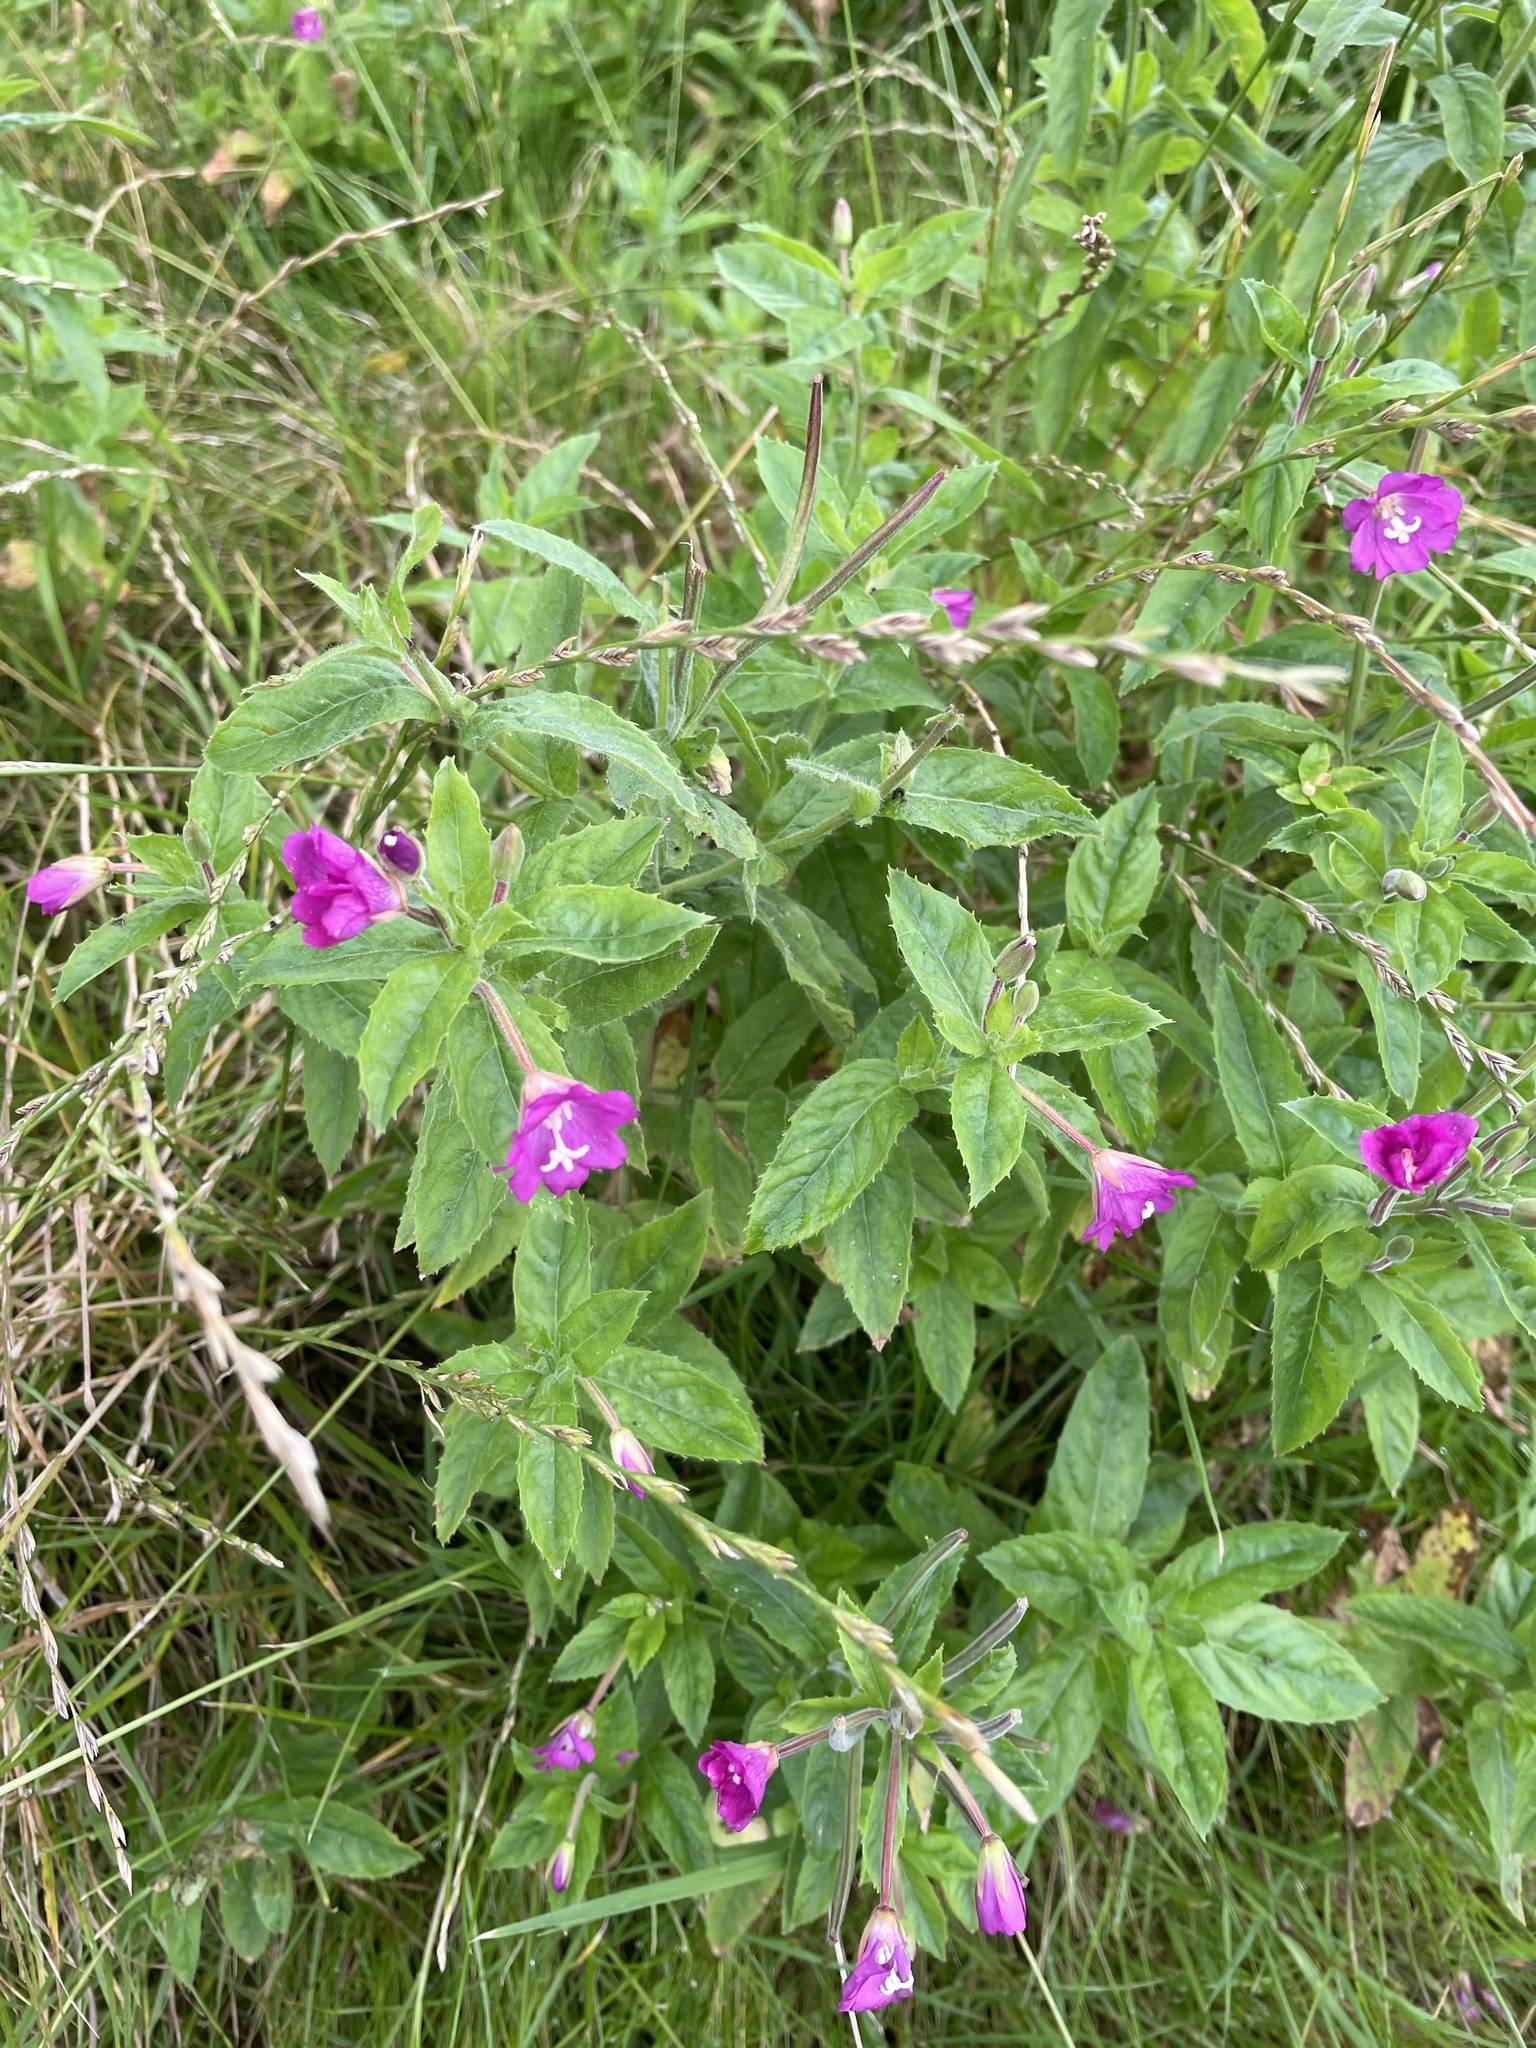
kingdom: Plantae
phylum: Tracheophyta
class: Magnoliopsida
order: Myrtales
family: Onagraceae
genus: Epilobium
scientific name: Epilobium hirsutum
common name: Great willowherb
